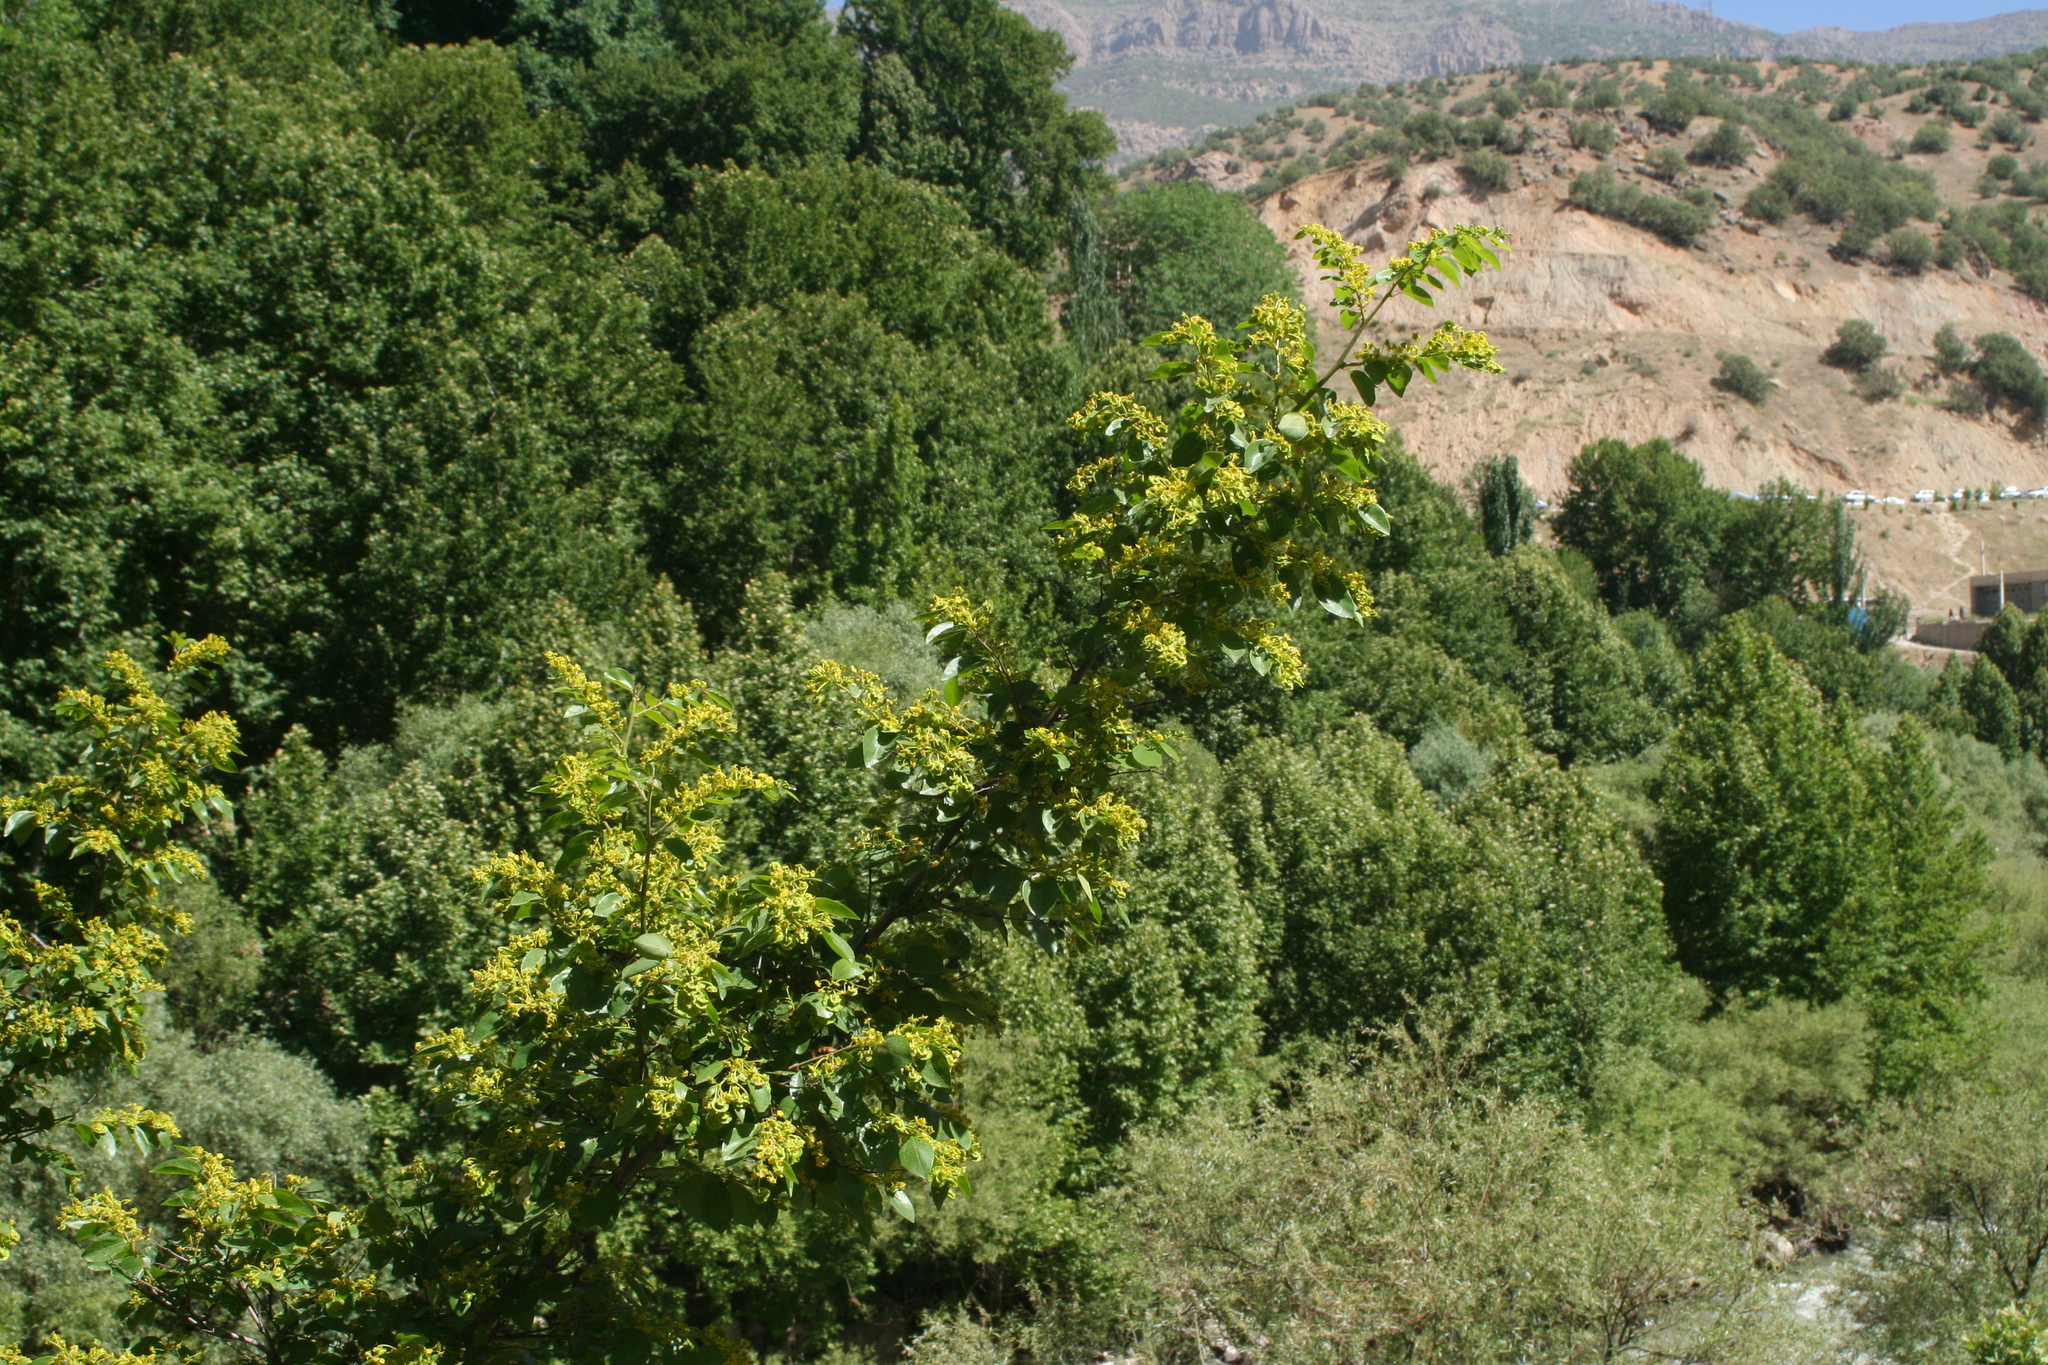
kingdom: Plantae
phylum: Tracheophyta
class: Magnoliopsida
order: Rosales
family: Rhamnaceae
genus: Paliurus
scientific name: Paliurus spina-christi
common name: Jeruselem thorn
